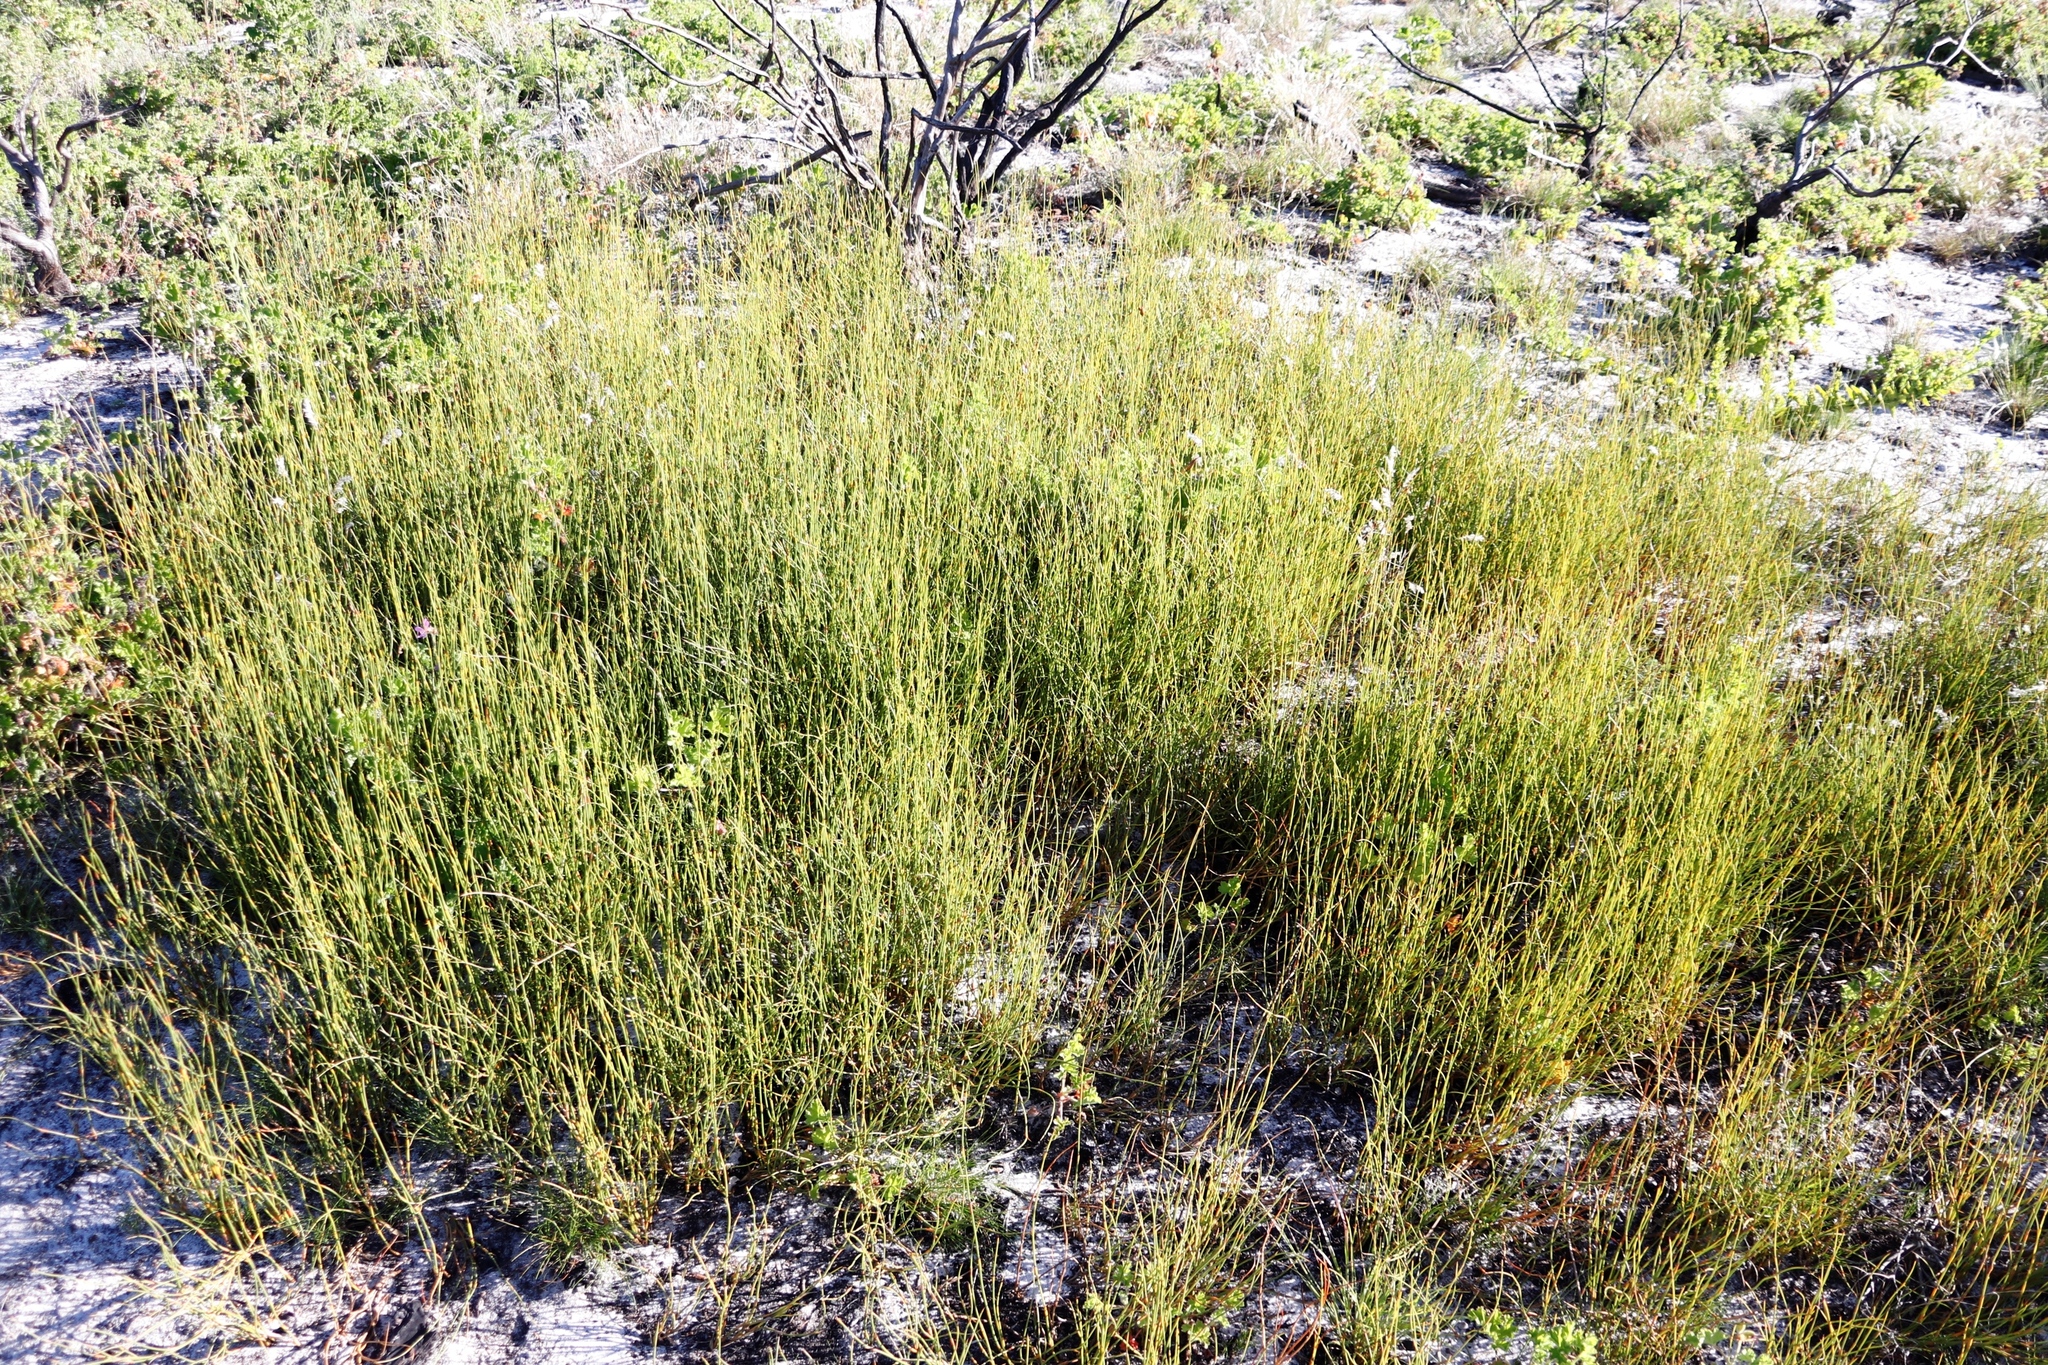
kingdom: Plantae
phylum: Tracheophyta
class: Liliopsida
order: Poales
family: Restionaceae
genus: Willdenowia
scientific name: Willdenowia sulcata
